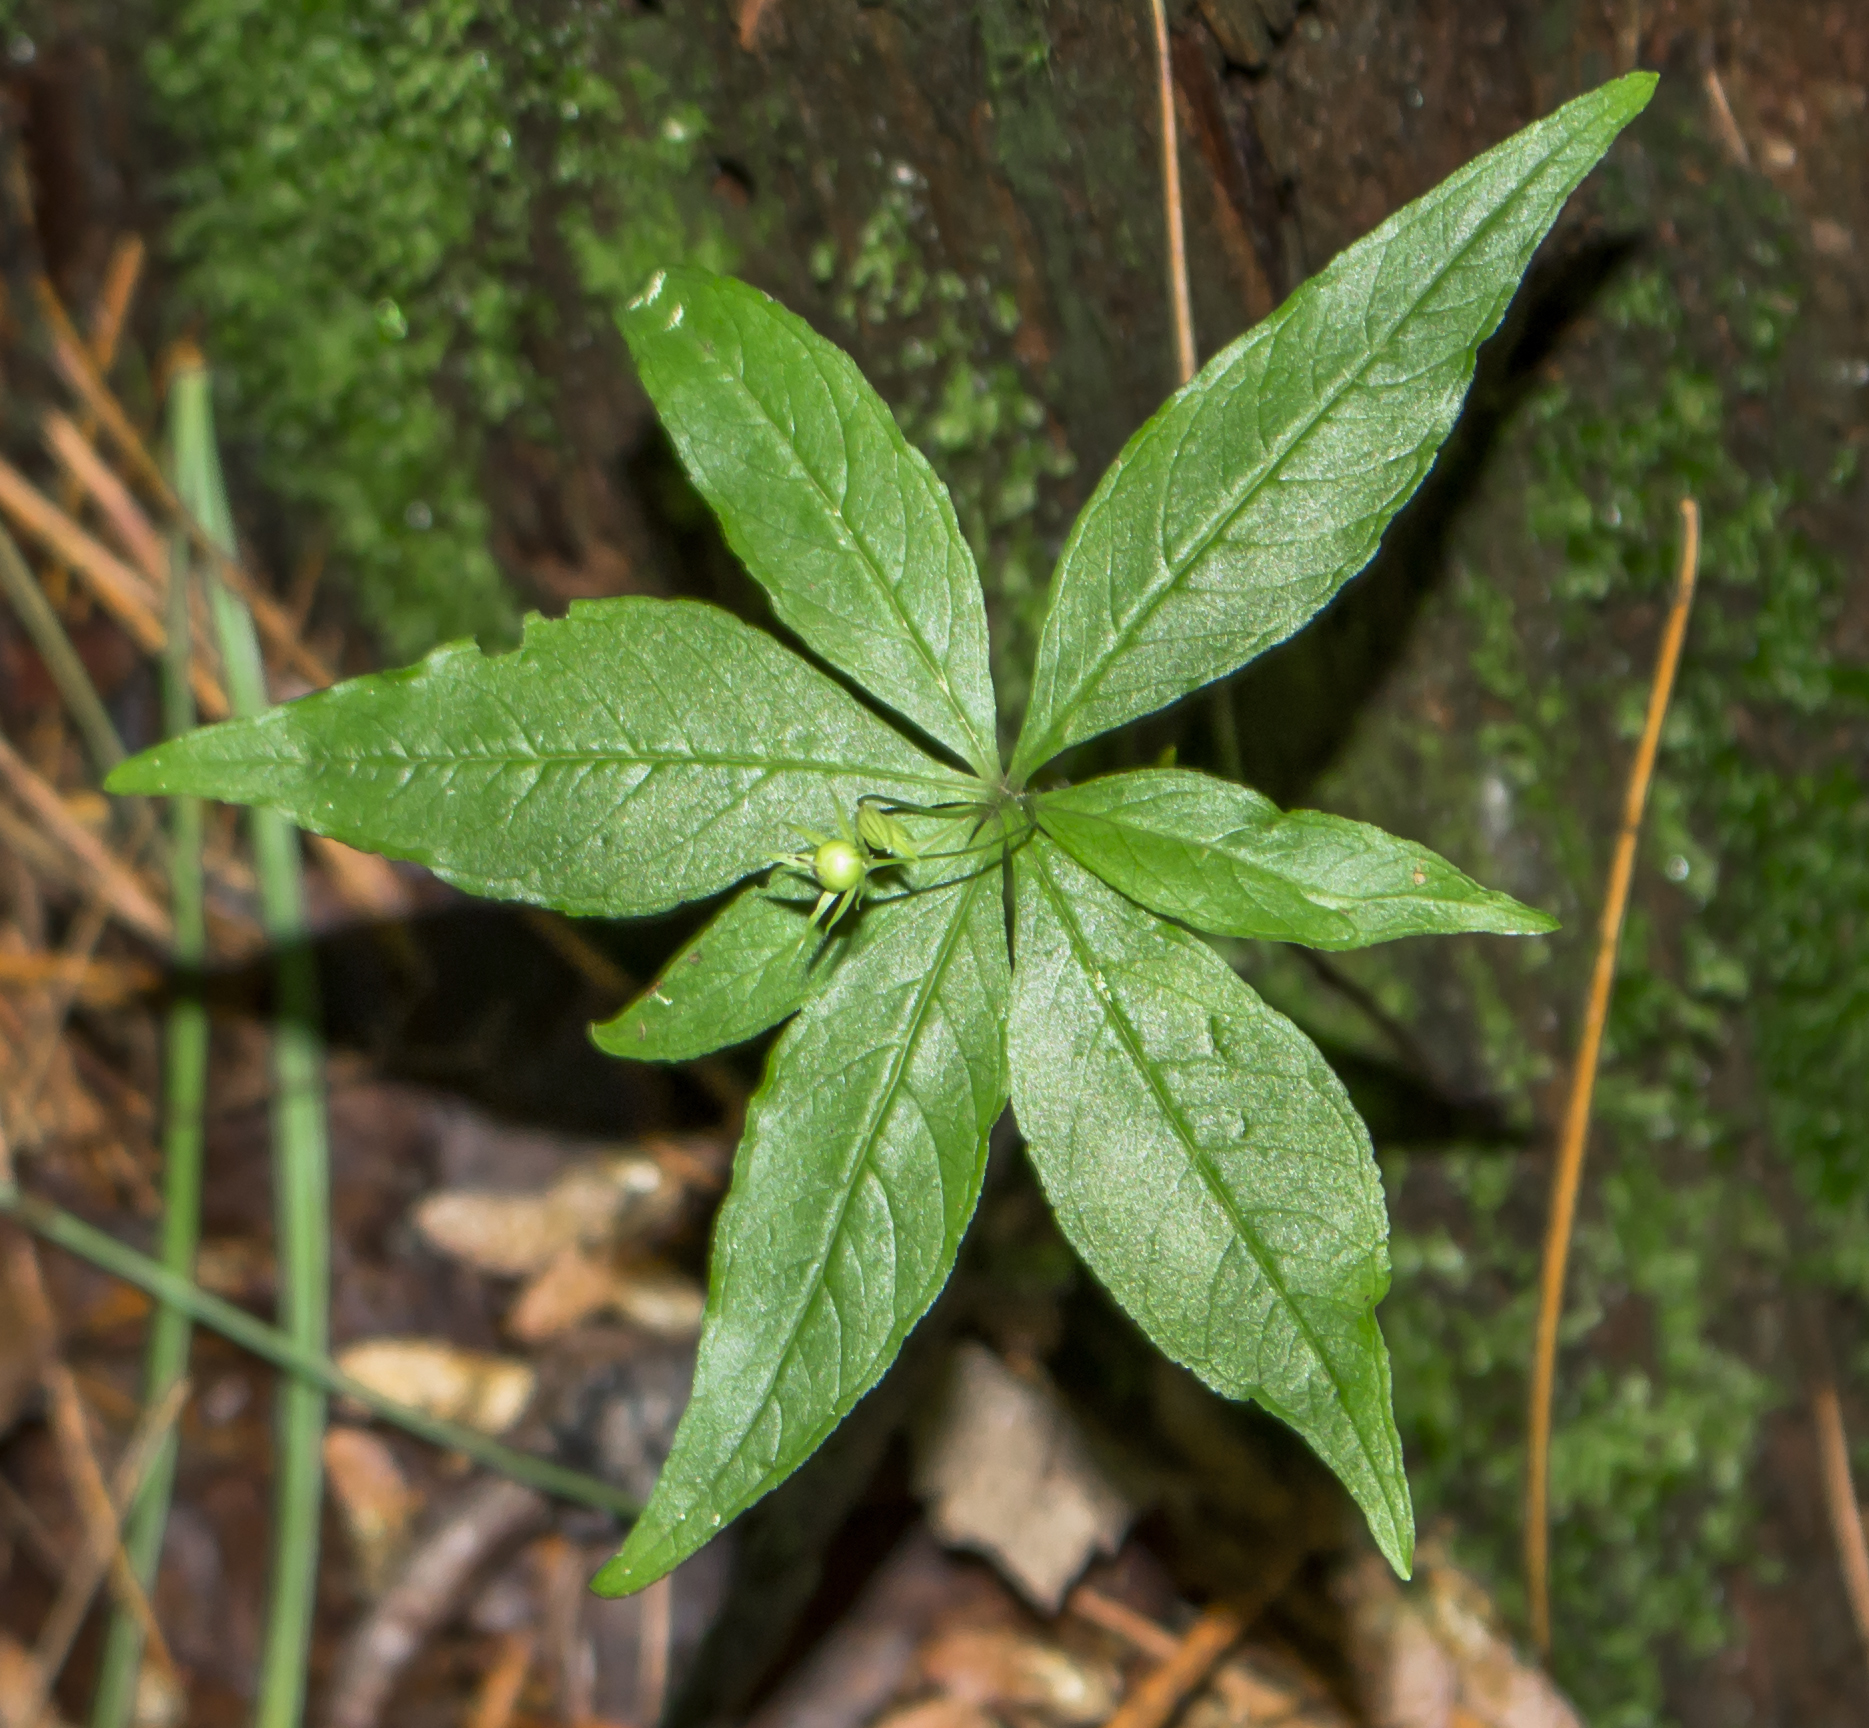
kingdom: Plantae
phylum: Tracheophyta
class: Magnoliopsida
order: Ericales
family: Primulaceae
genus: Lysimachia
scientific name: Lysimachia borealis
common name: American starflower
